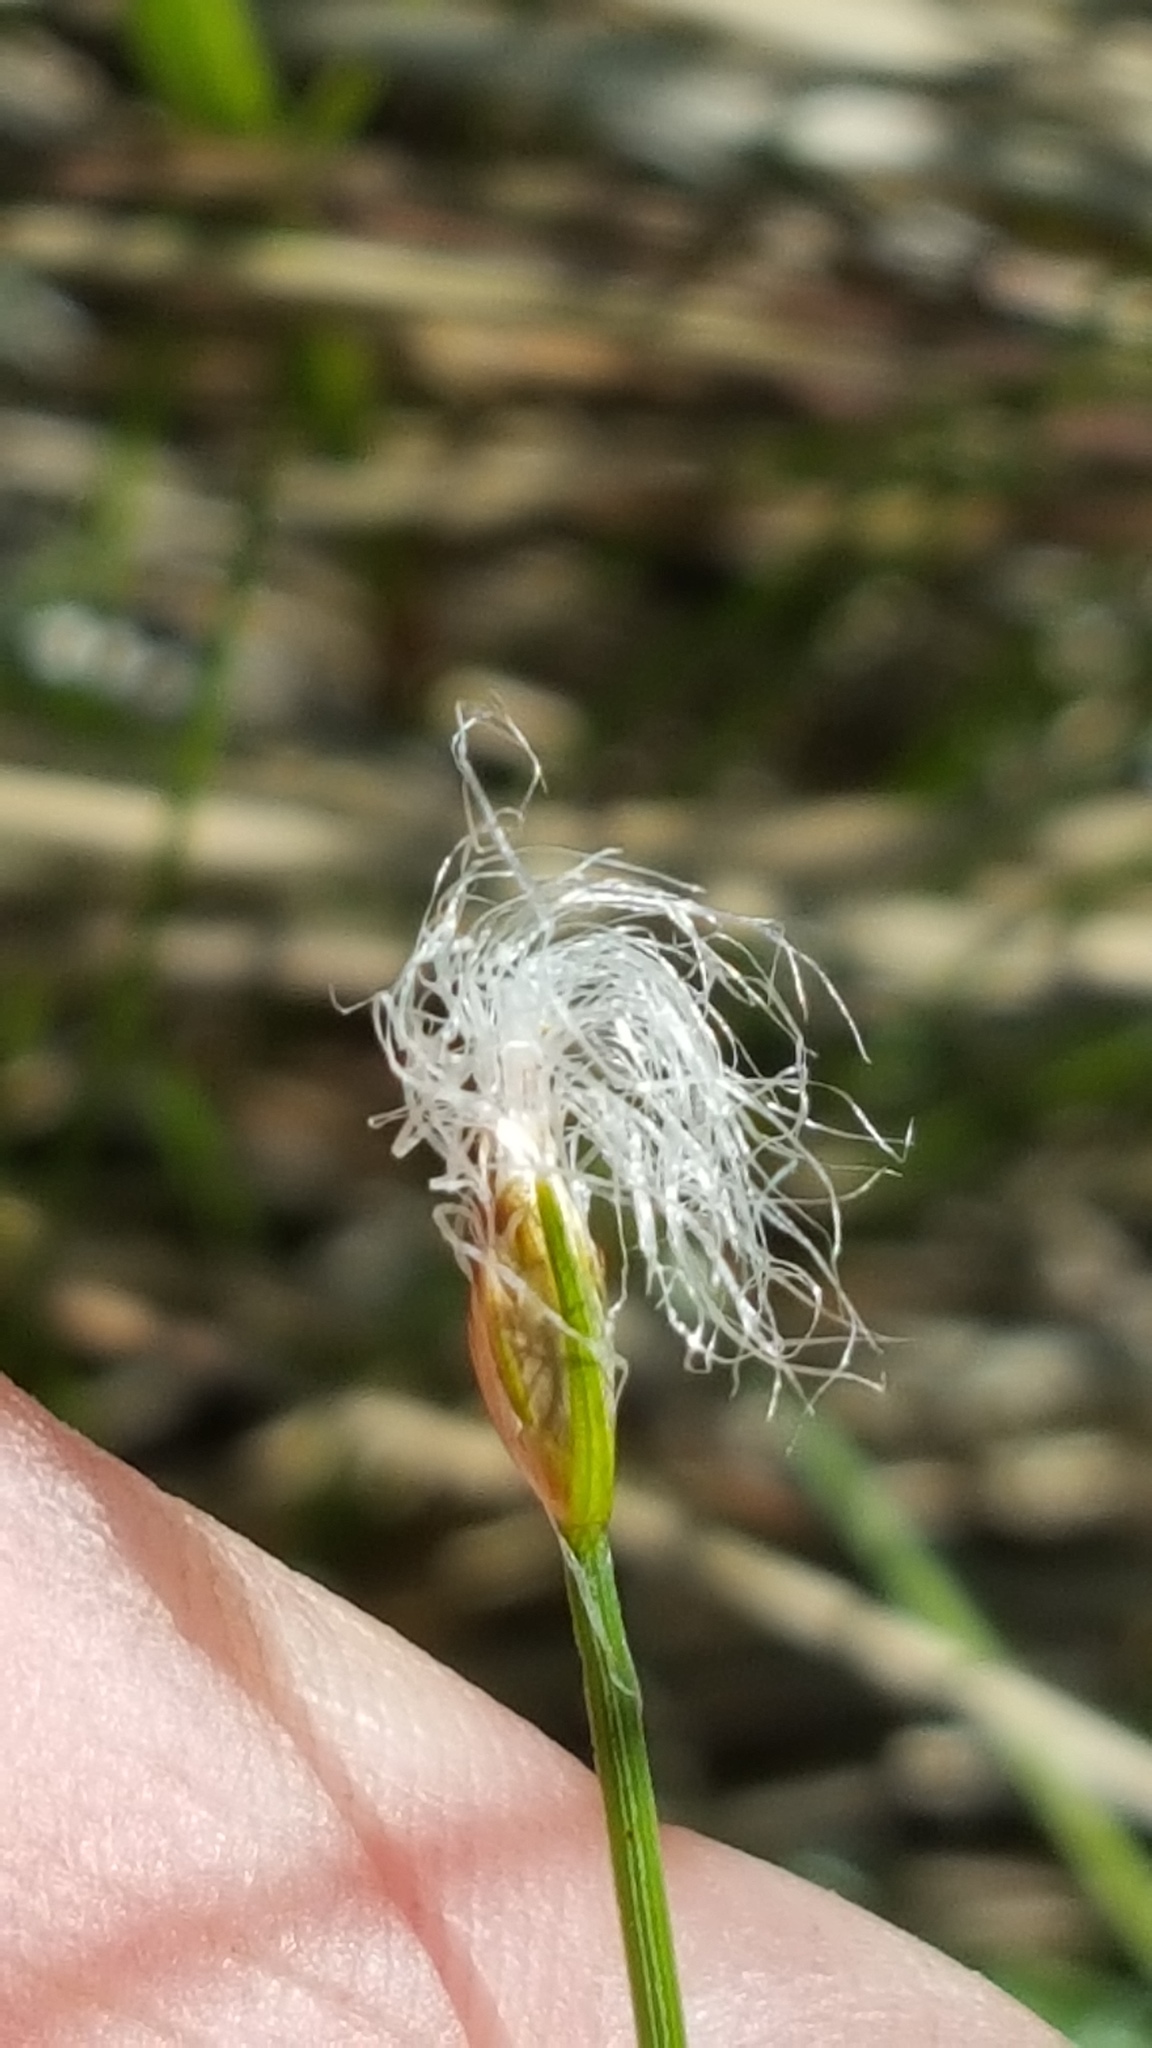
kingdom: Plantae
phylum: Tracheophyta
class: Liliopsida
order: Poales
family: Cyperaceae
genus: Trichophorum
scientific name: Trichophorum alpinum
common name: Alpine bulrush
